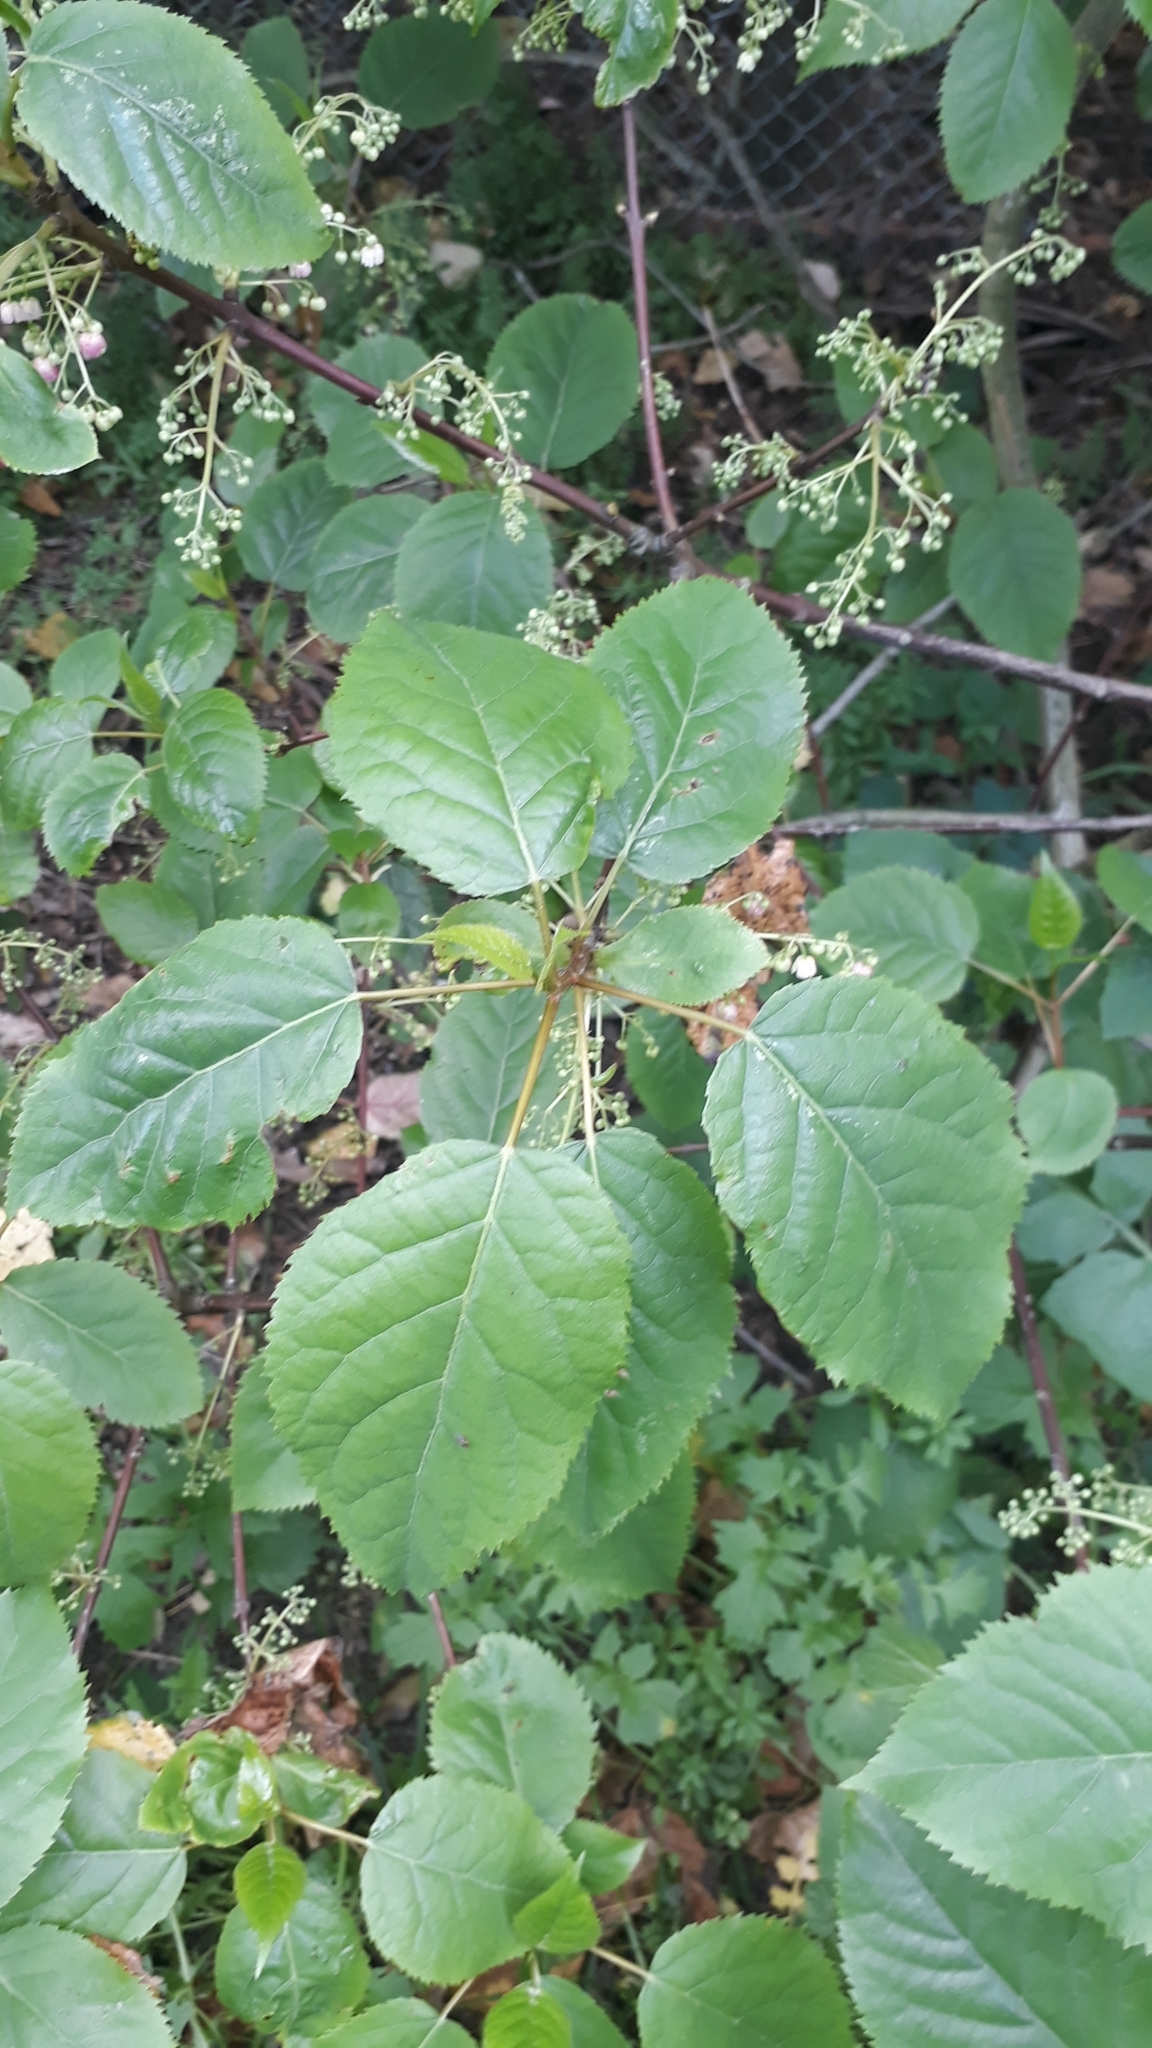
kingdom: Plantae
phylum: Tracheophyta
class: Magnoliopsida
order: Oxalidales
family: Elaeocarpaceae
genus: Aristotelia
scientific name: Aristotelia serrata
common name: New zealand wineberry
